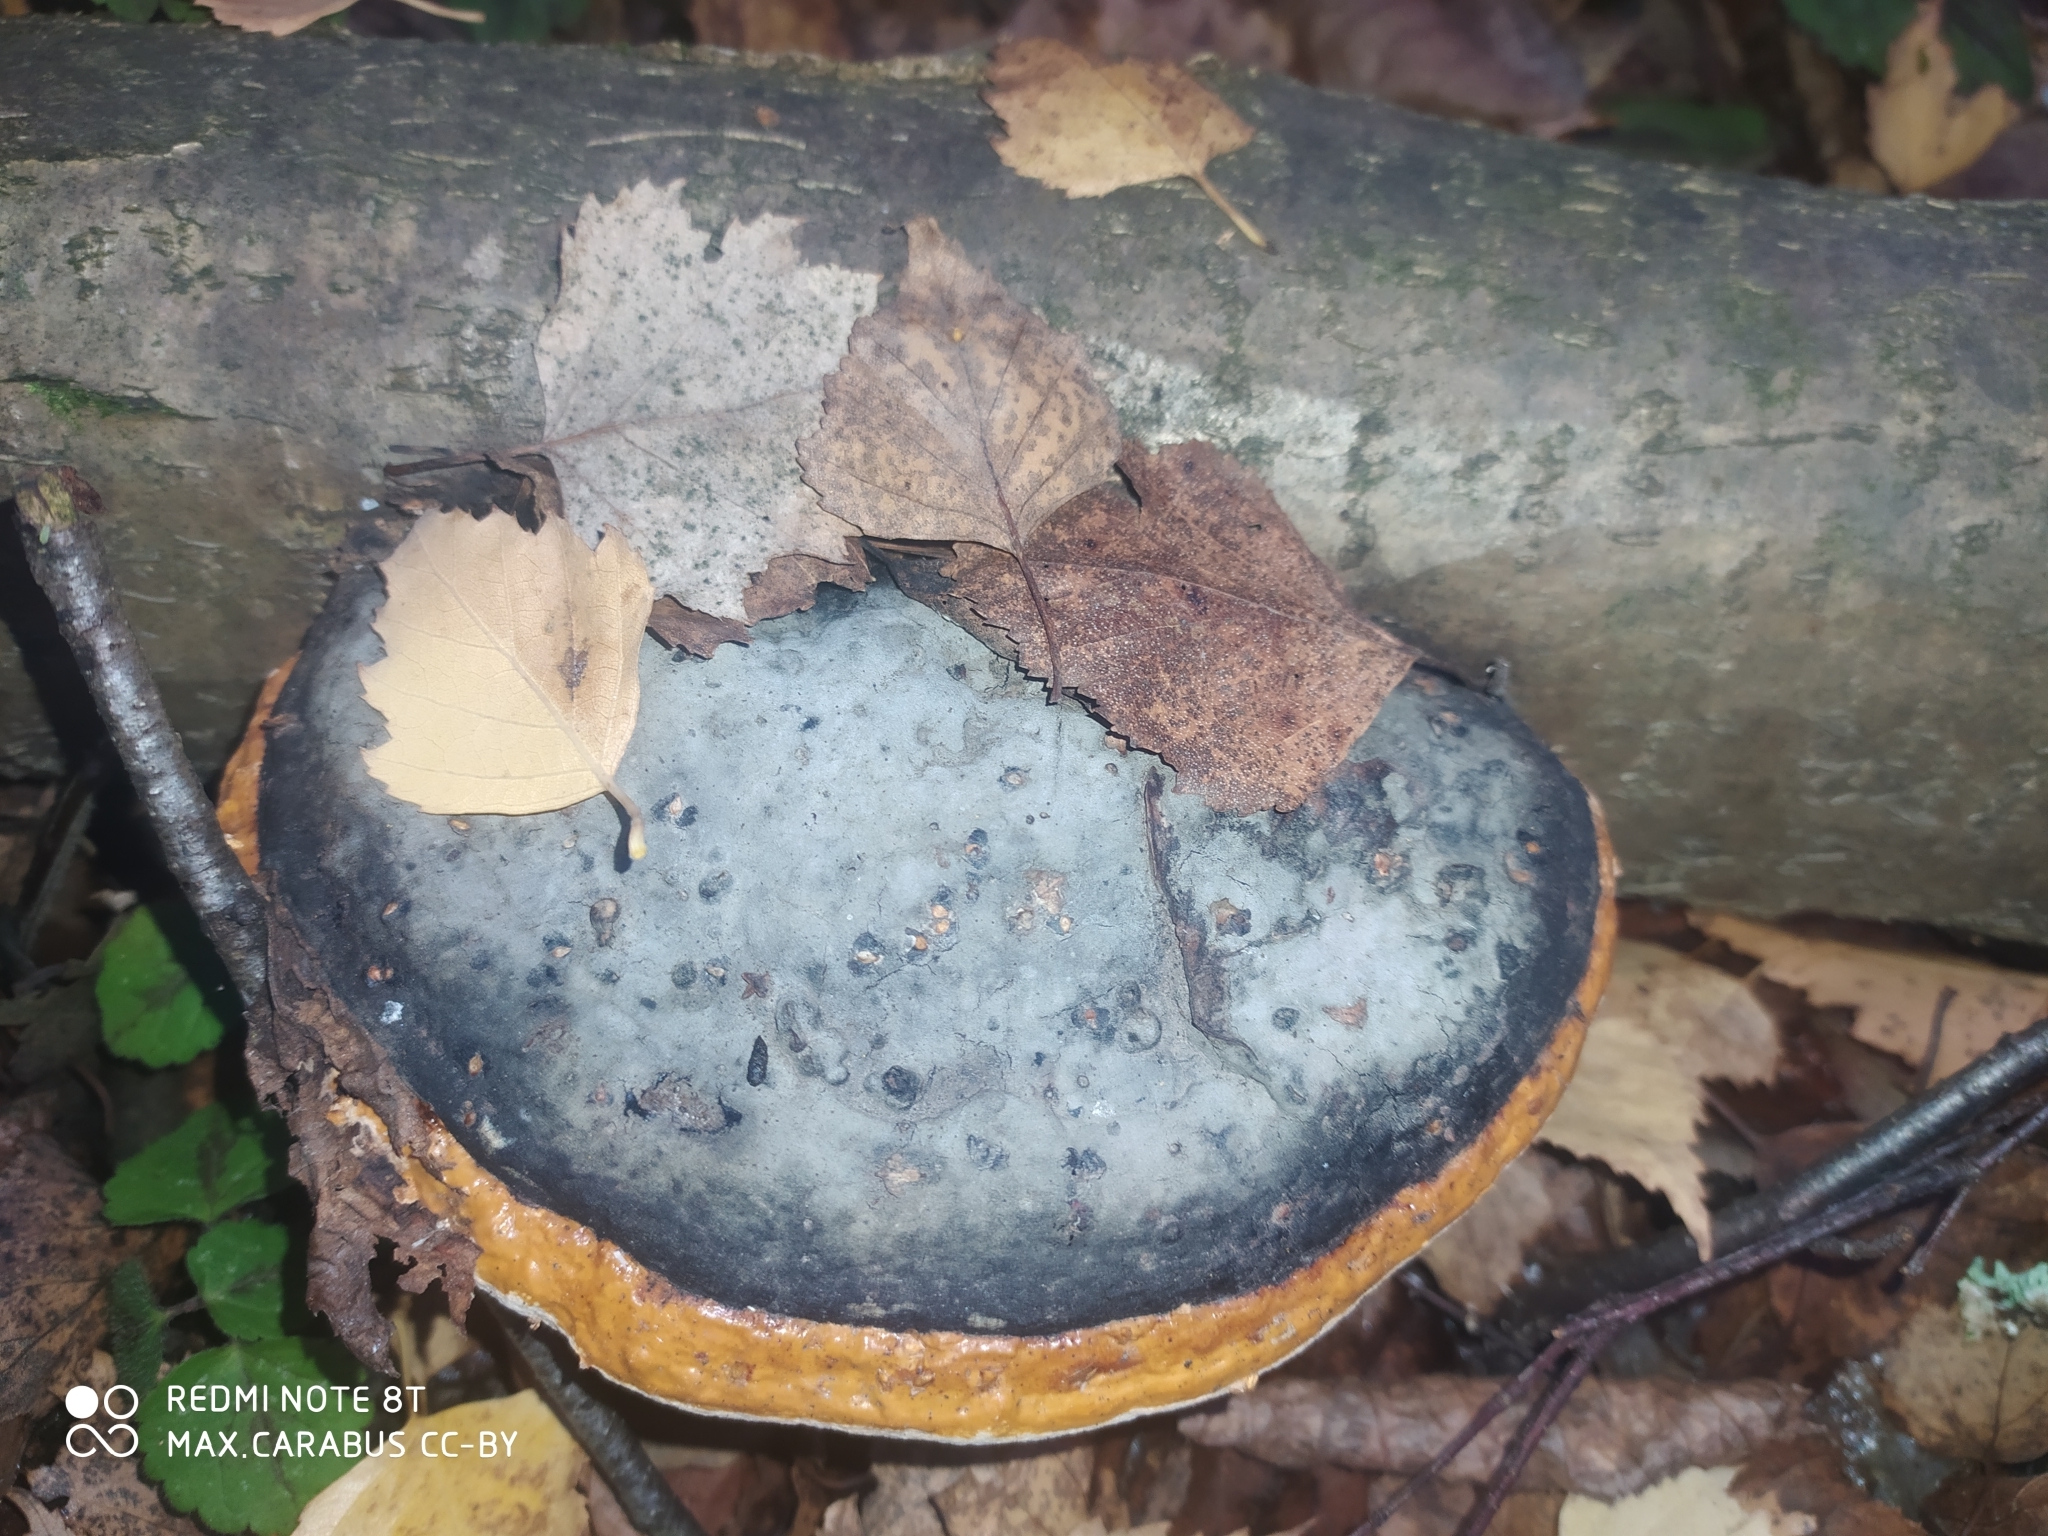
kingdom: Fungi
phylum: Basidiomycota
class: Agaricomycetes
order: Polyporales
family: Fomitopsidaceae
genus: Fomitopsis
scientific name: Fomitopsis pinicola
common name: Red-belted bracket
